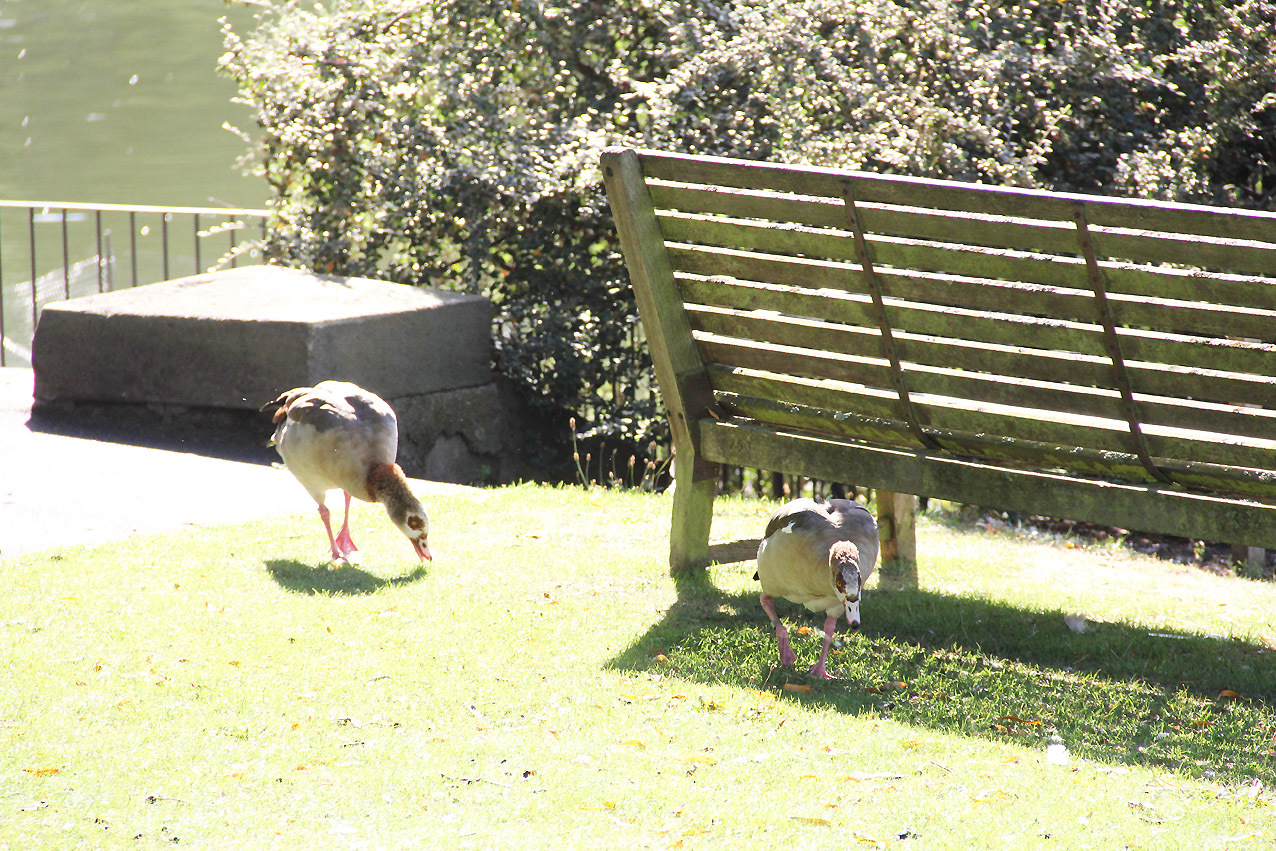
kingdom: Animalia
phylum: Chordata
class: Aves
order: Anseriformes
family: Anatidae
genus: Alopochen
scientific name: Alopochen aegyptiaca
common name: Egyptian goose
